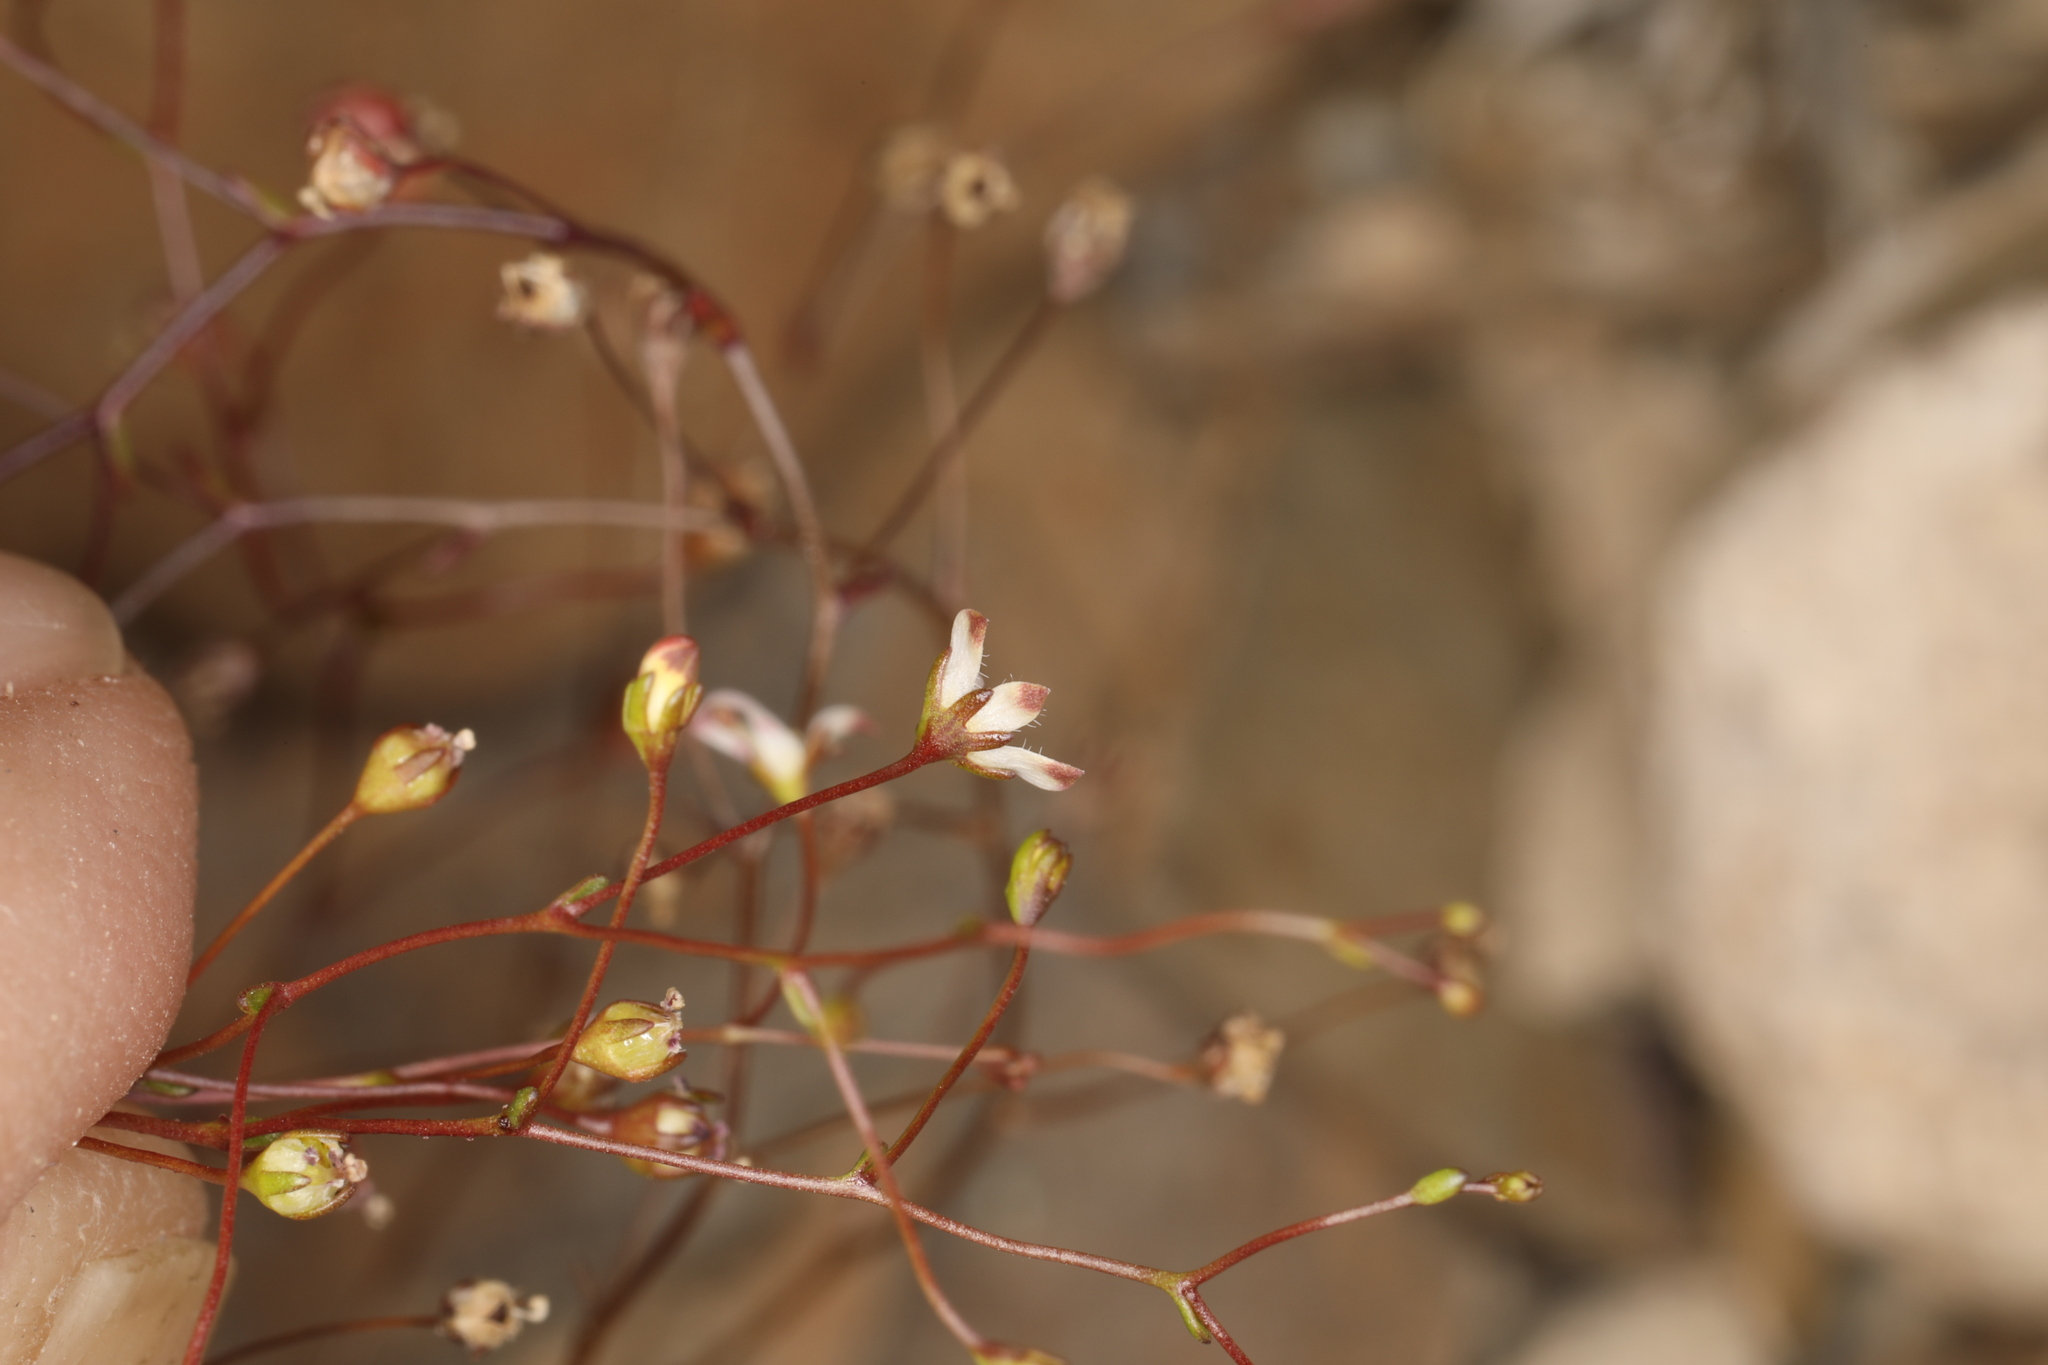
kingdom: Plantae
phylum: Tracheophyta
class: Magnoliopsida
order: Asterales
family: Campanulaceae
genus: Nemacladus
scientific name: Nemacladus orientalis
